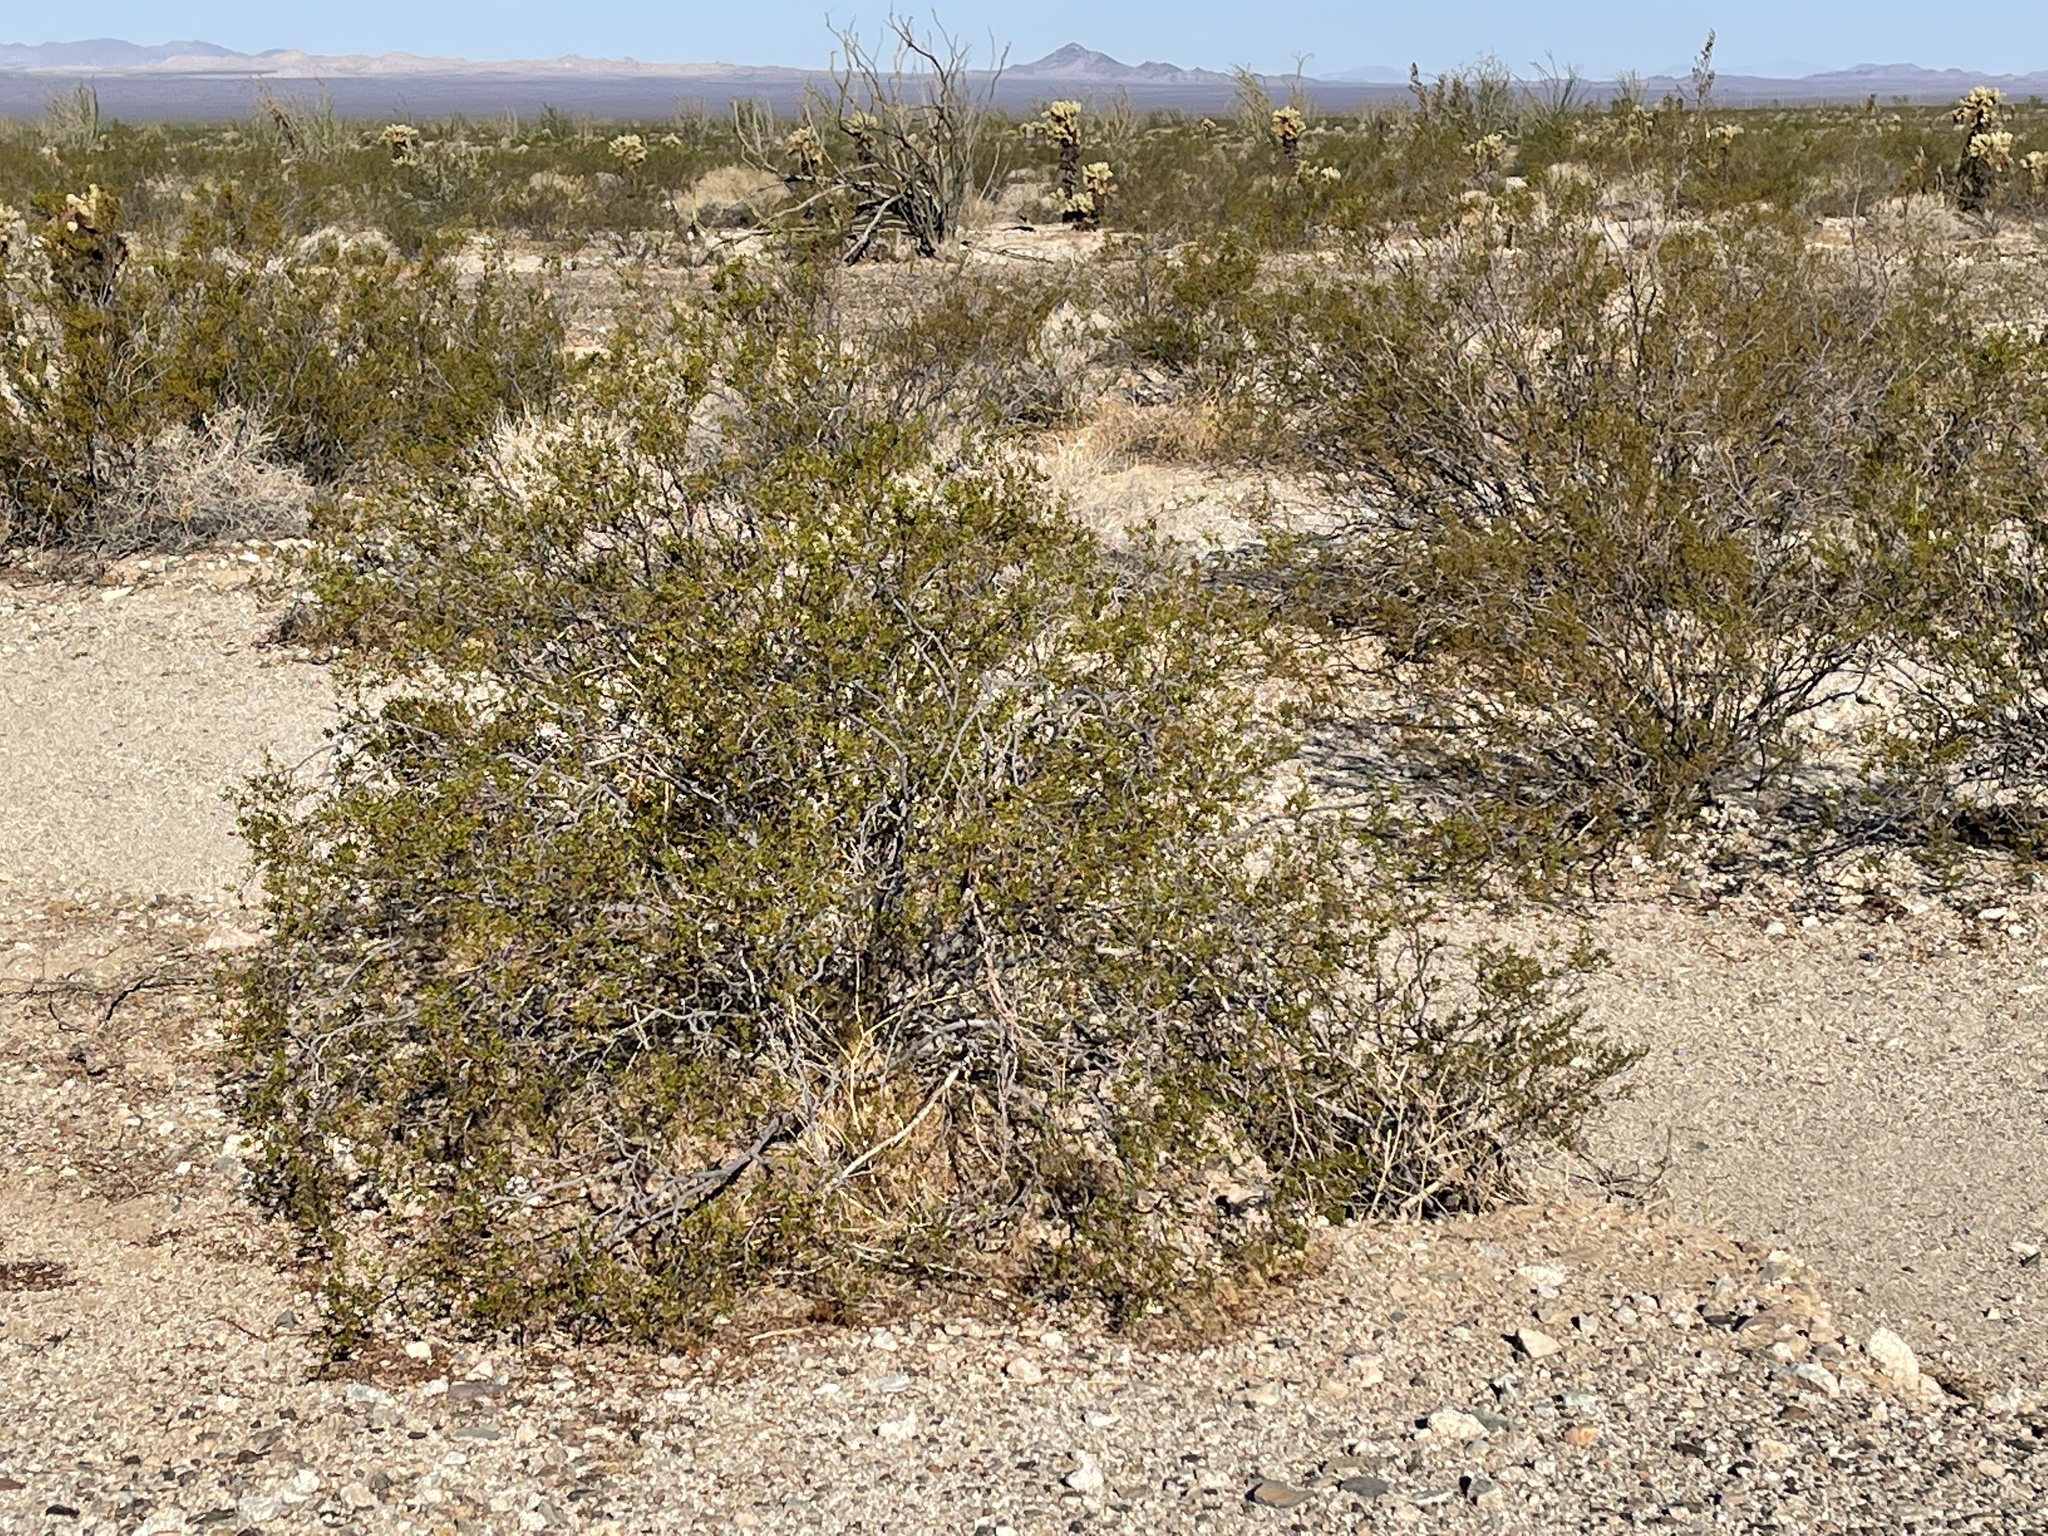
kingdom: Plantae
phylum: Tracheophyta
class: Magnoliopsida
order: Zygophyllales
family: Zygophyllaceae
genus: Larrea
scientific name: Larrea tridentata
